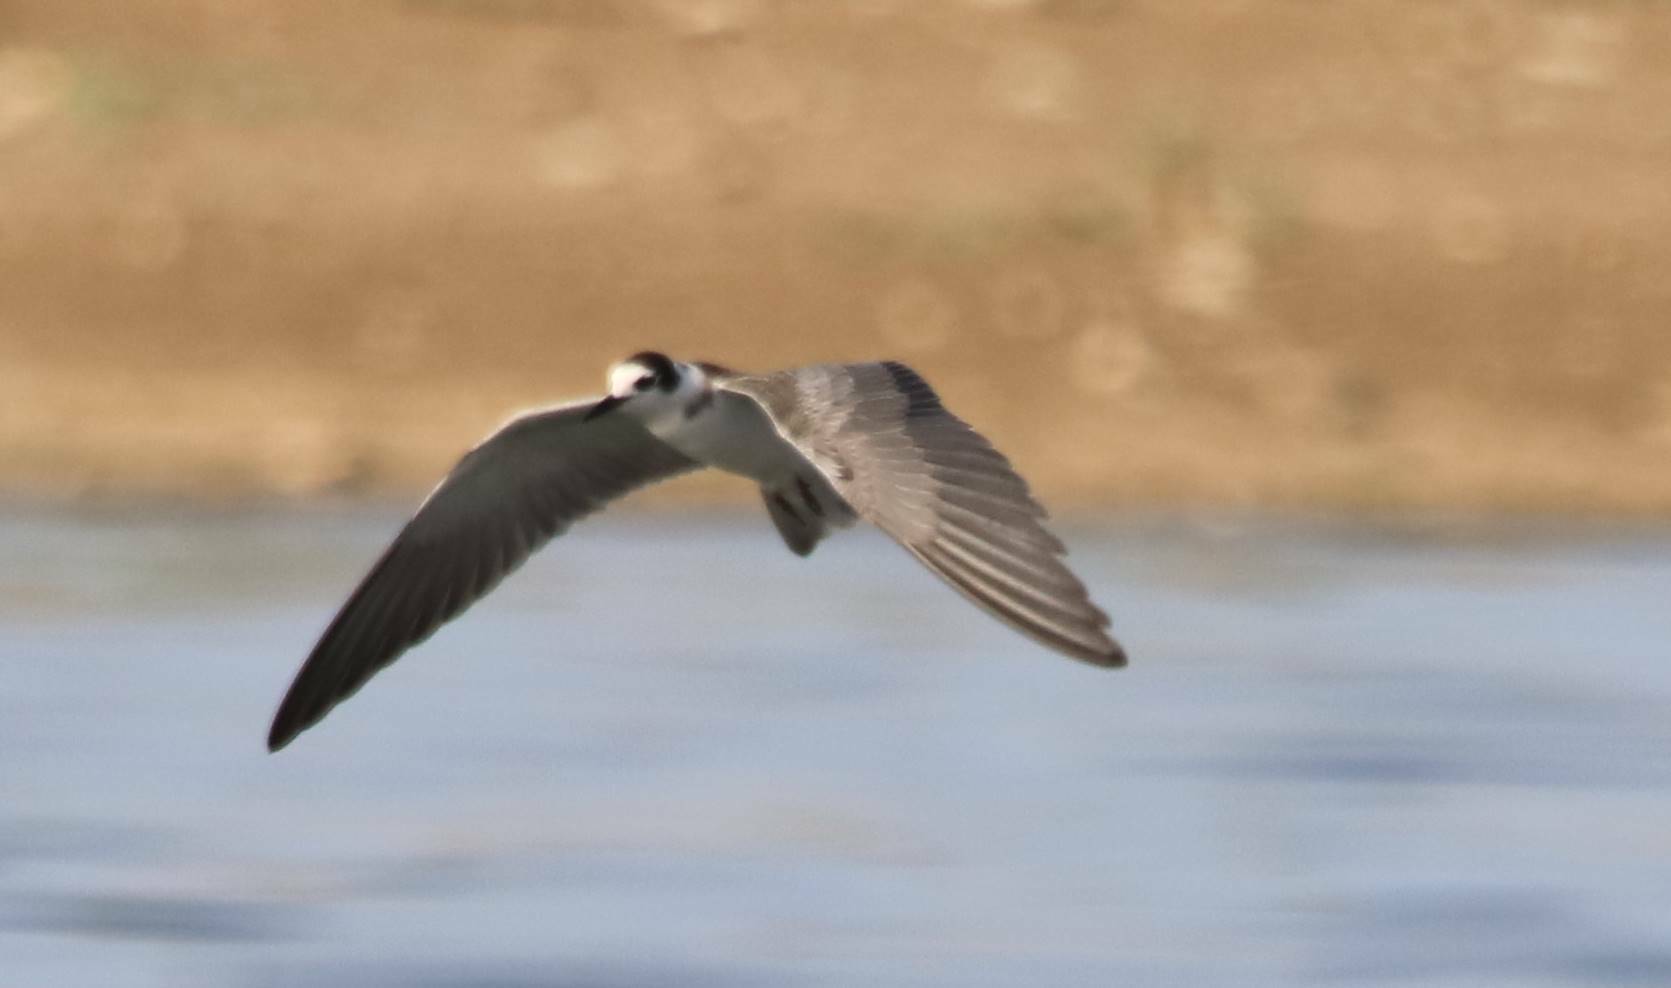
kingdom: Animalia
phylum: Chordata
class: Aves
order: Charadriiformes
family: Laridae
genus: Chlidonias
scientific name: Chlidonias leucopterus
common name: White-winged tern
